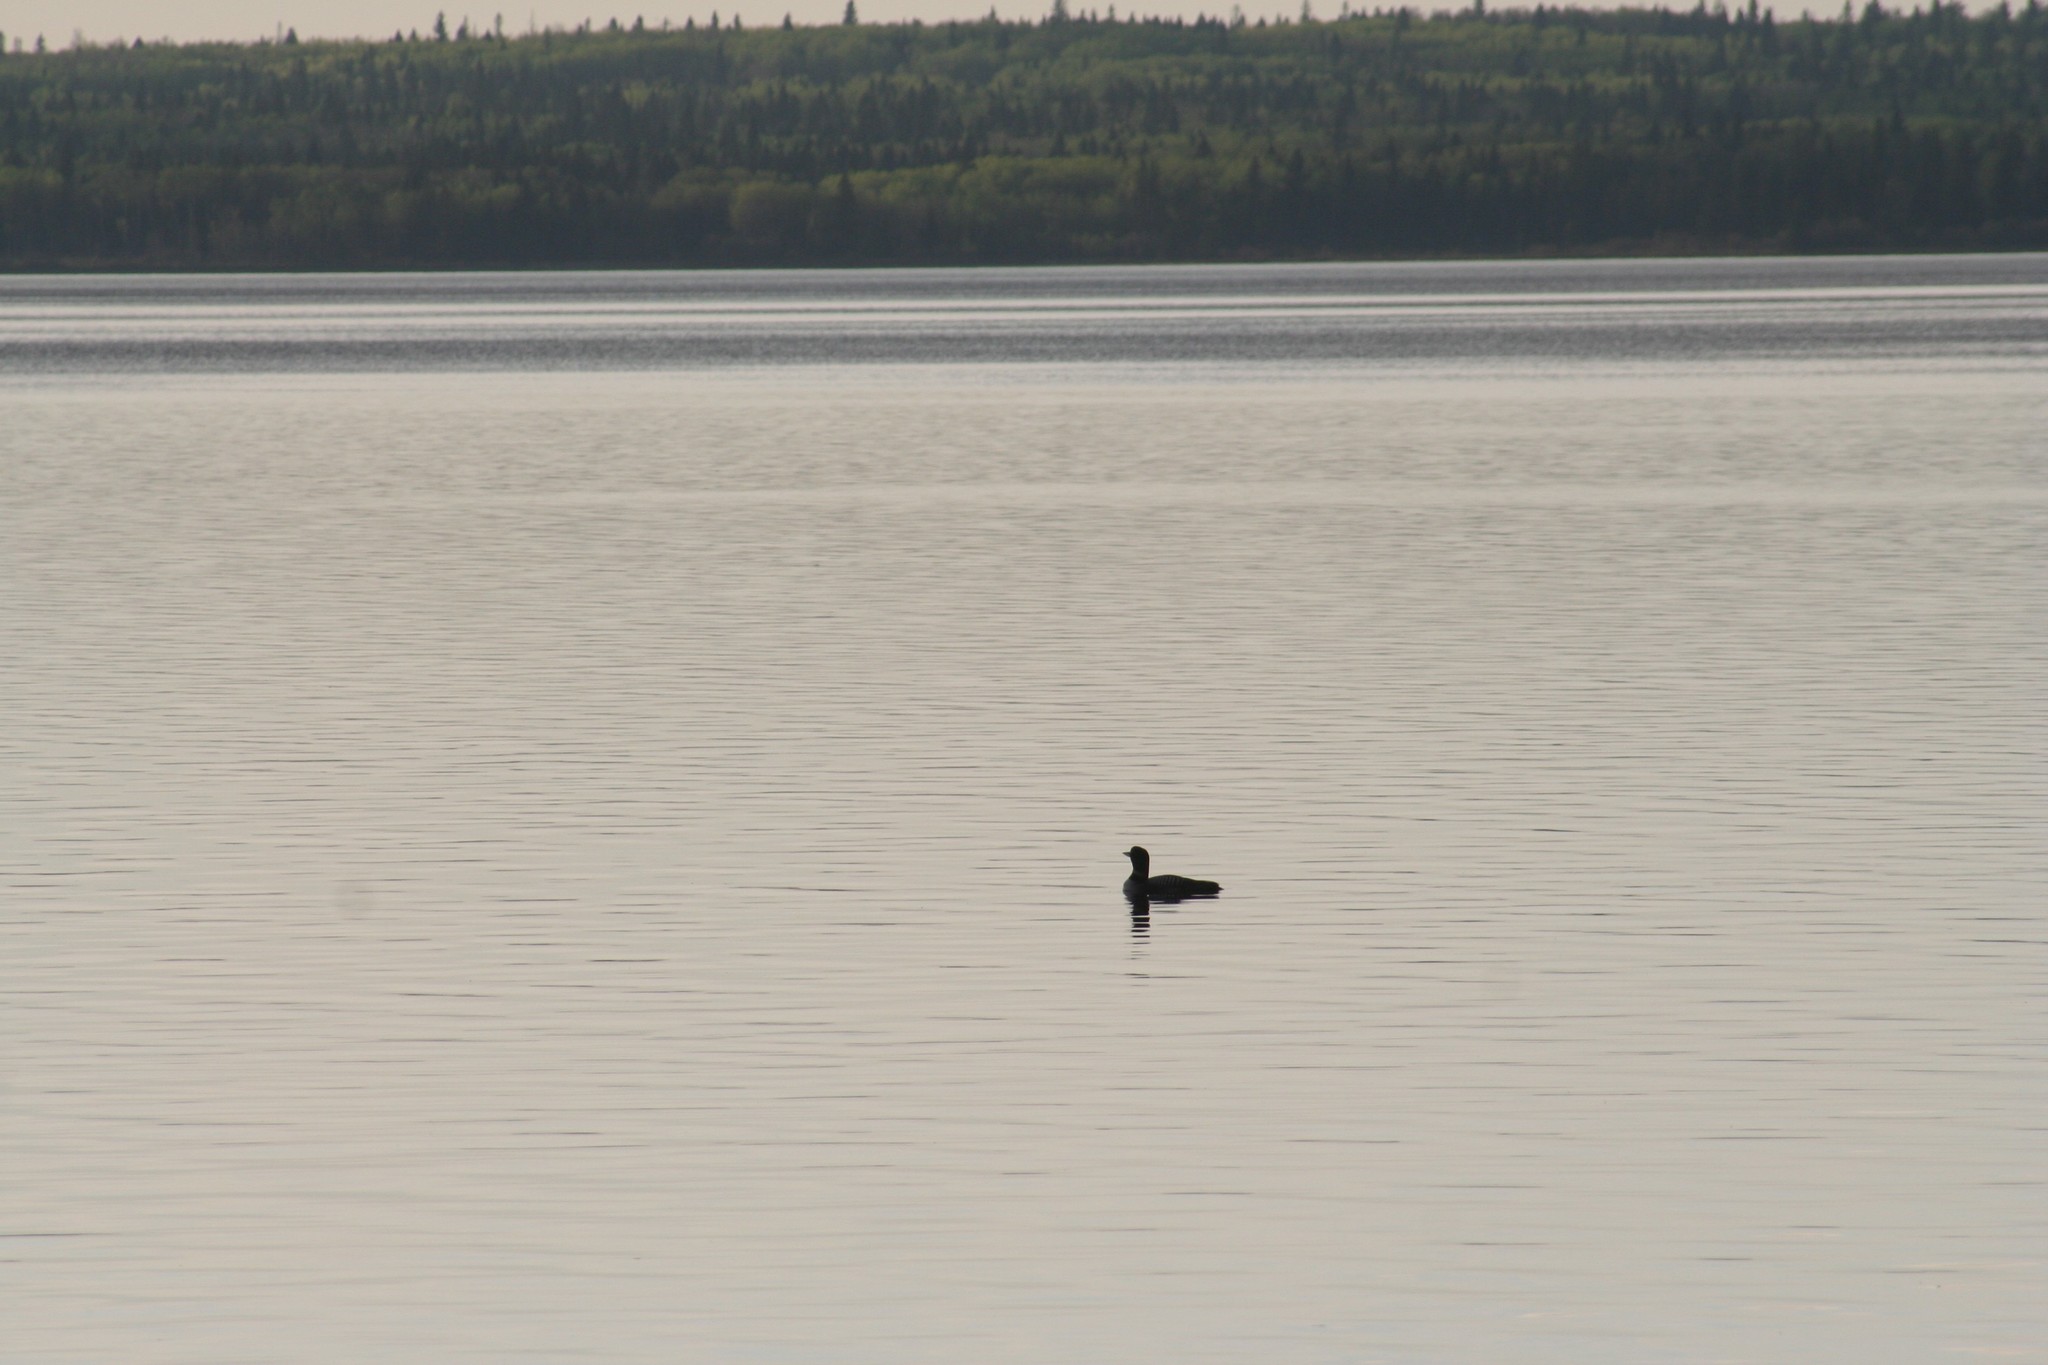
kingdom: Animalia
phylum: Chordata
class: Aves
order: Gaviiformes
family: Gaviidae
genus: Gavia
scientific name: Gavia immer
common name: Common loon
